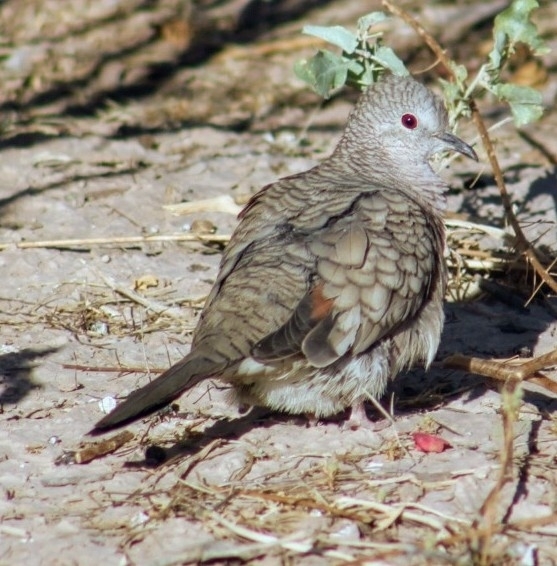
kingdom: Animalia
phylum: Chordata
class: Aves
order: Columbiformes
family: Columbidae
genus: Columbina
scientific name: Columbina inca
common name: Inca dove
